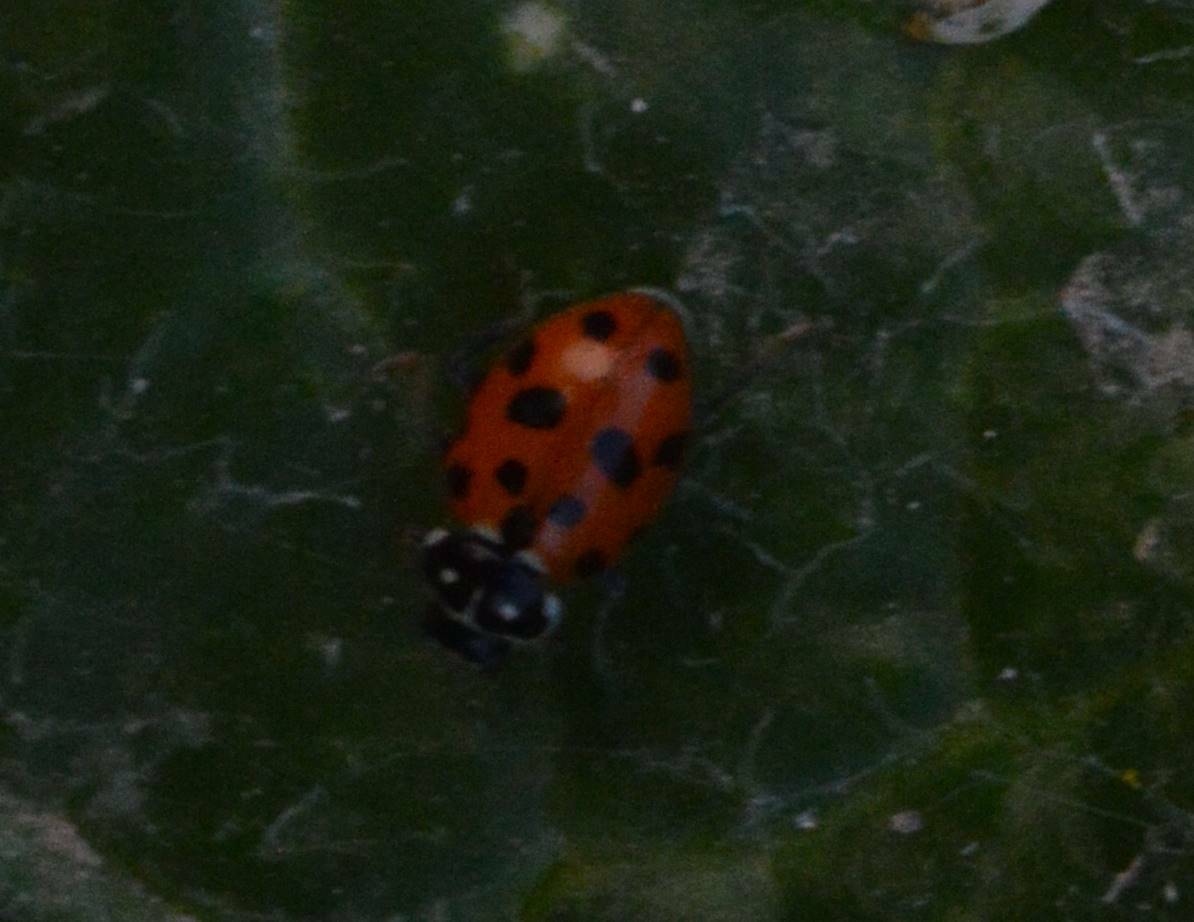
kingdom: Animalia
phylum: Arthropoda
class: Insecta
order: Coleoptera
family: Coccinellidae
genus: Hippodamia
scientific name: Hippodamia variegata
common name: Ladybird beetle
